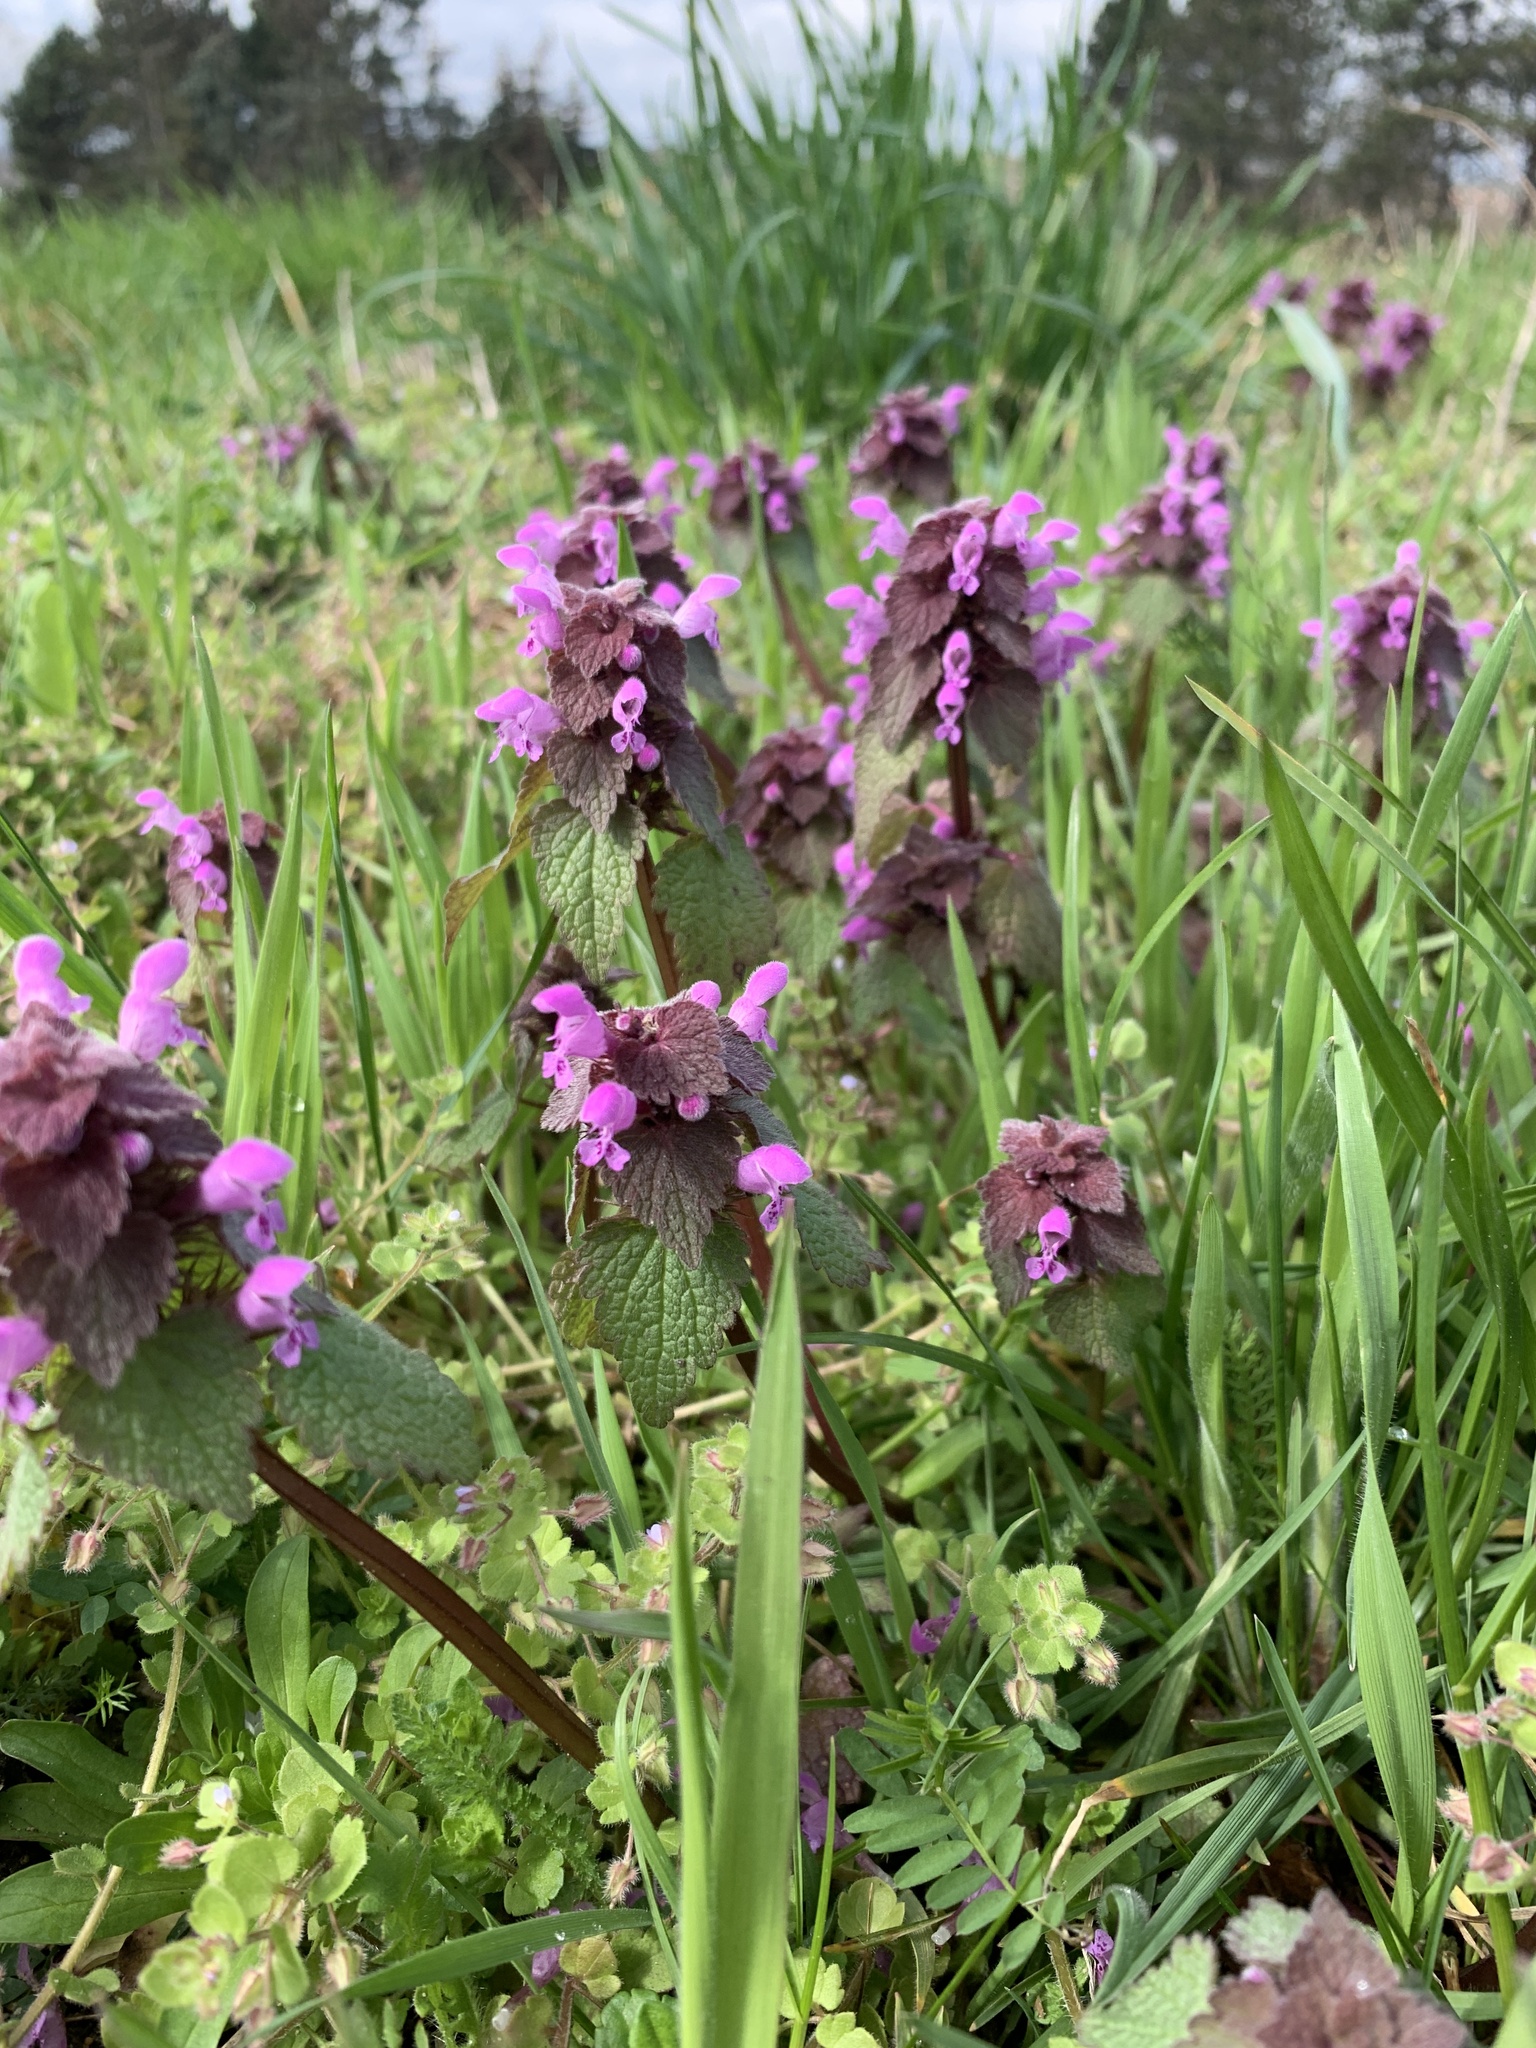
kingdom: Plantae
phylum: Tracheophyta
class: Magnoliopsida
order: Lamiales
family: Lamiaceae
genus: Lamium
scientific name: Lamium purpureum
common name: Red dead-nettle
